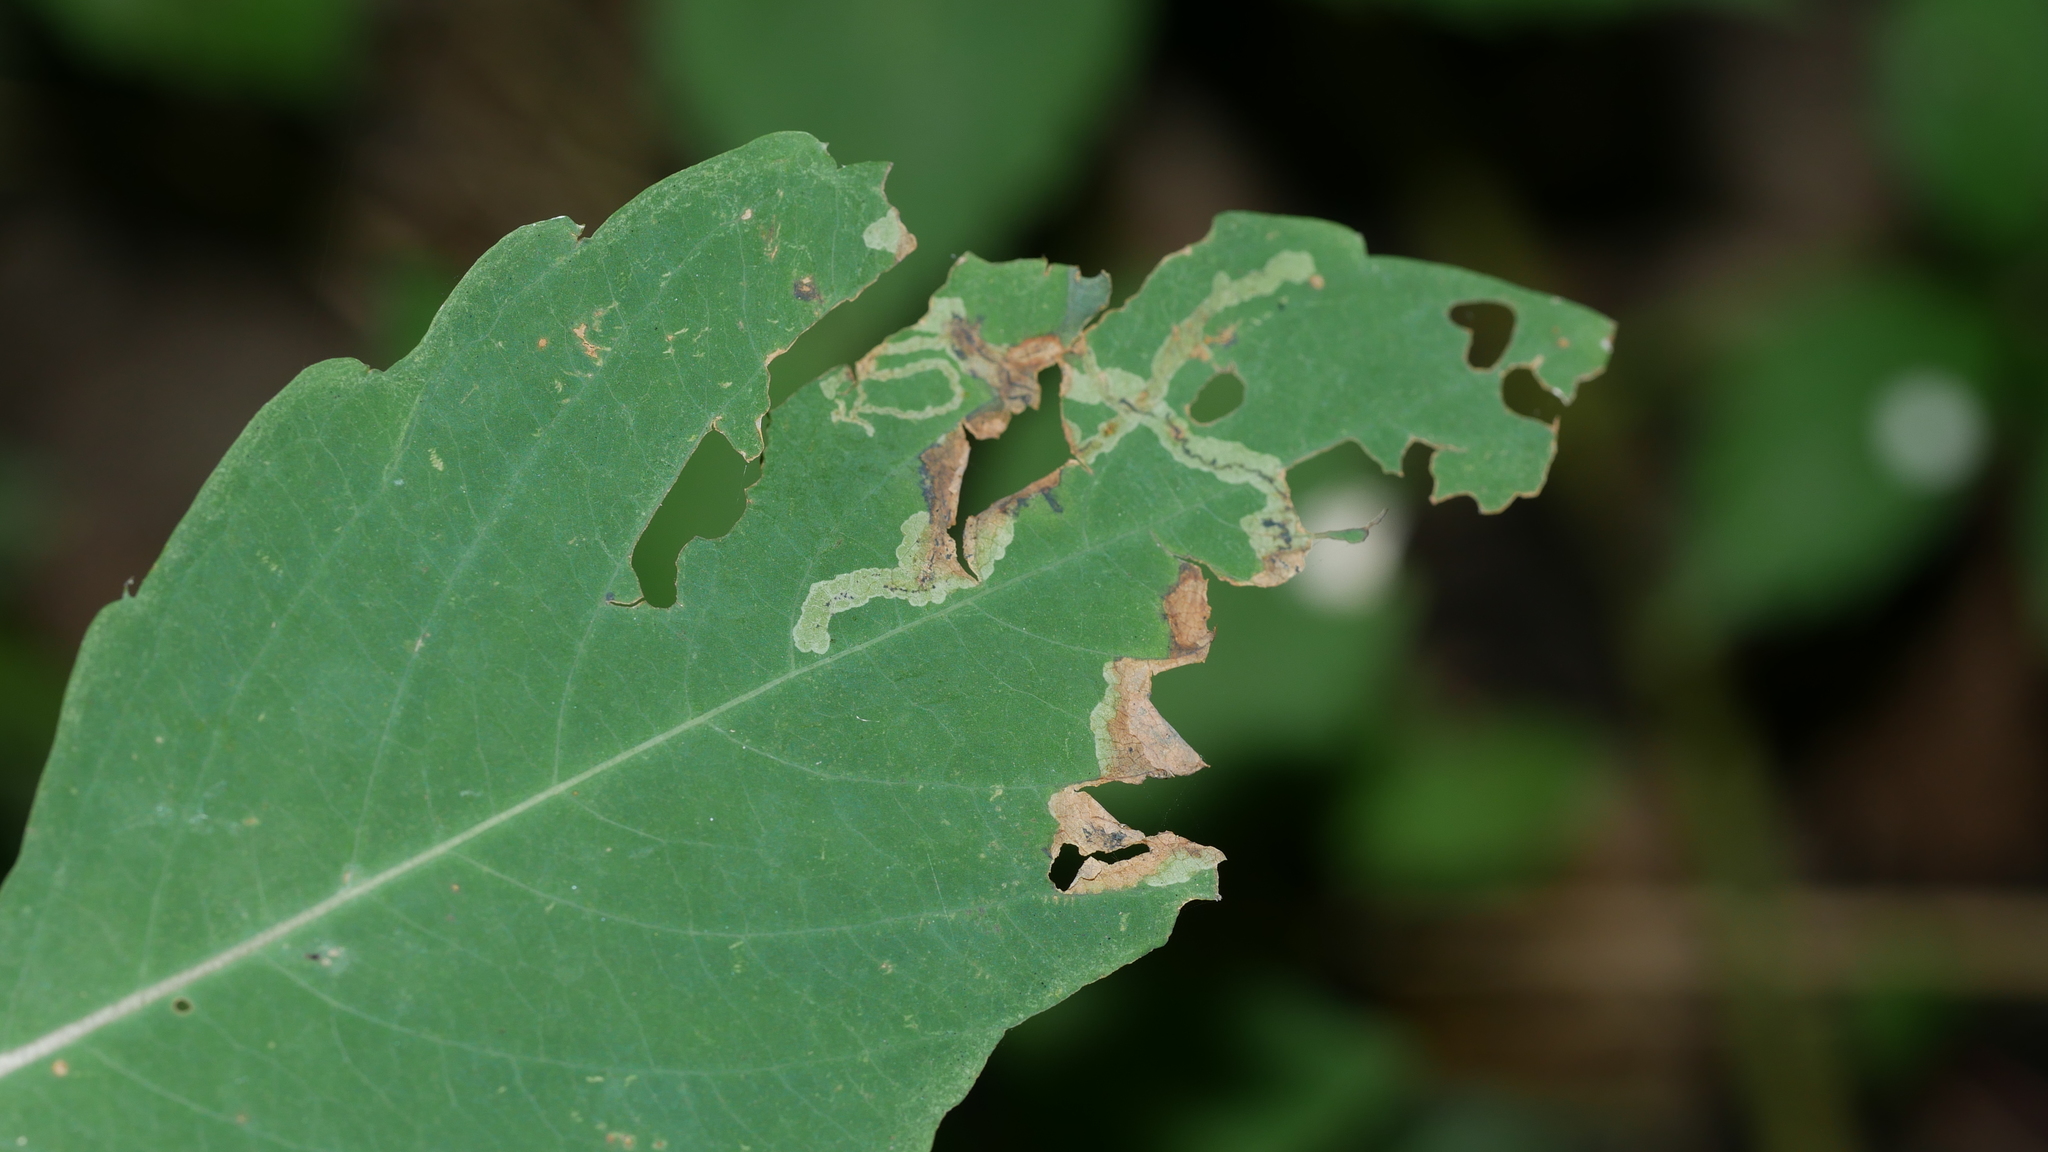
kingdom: Animalia
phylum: Arthropoda
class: Insecta
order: Diptera
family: Agromyzidae
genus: Phytoliriomyza
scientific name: Phytoliriomyza melampyga
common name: Jewelweed leaf-miner fly
